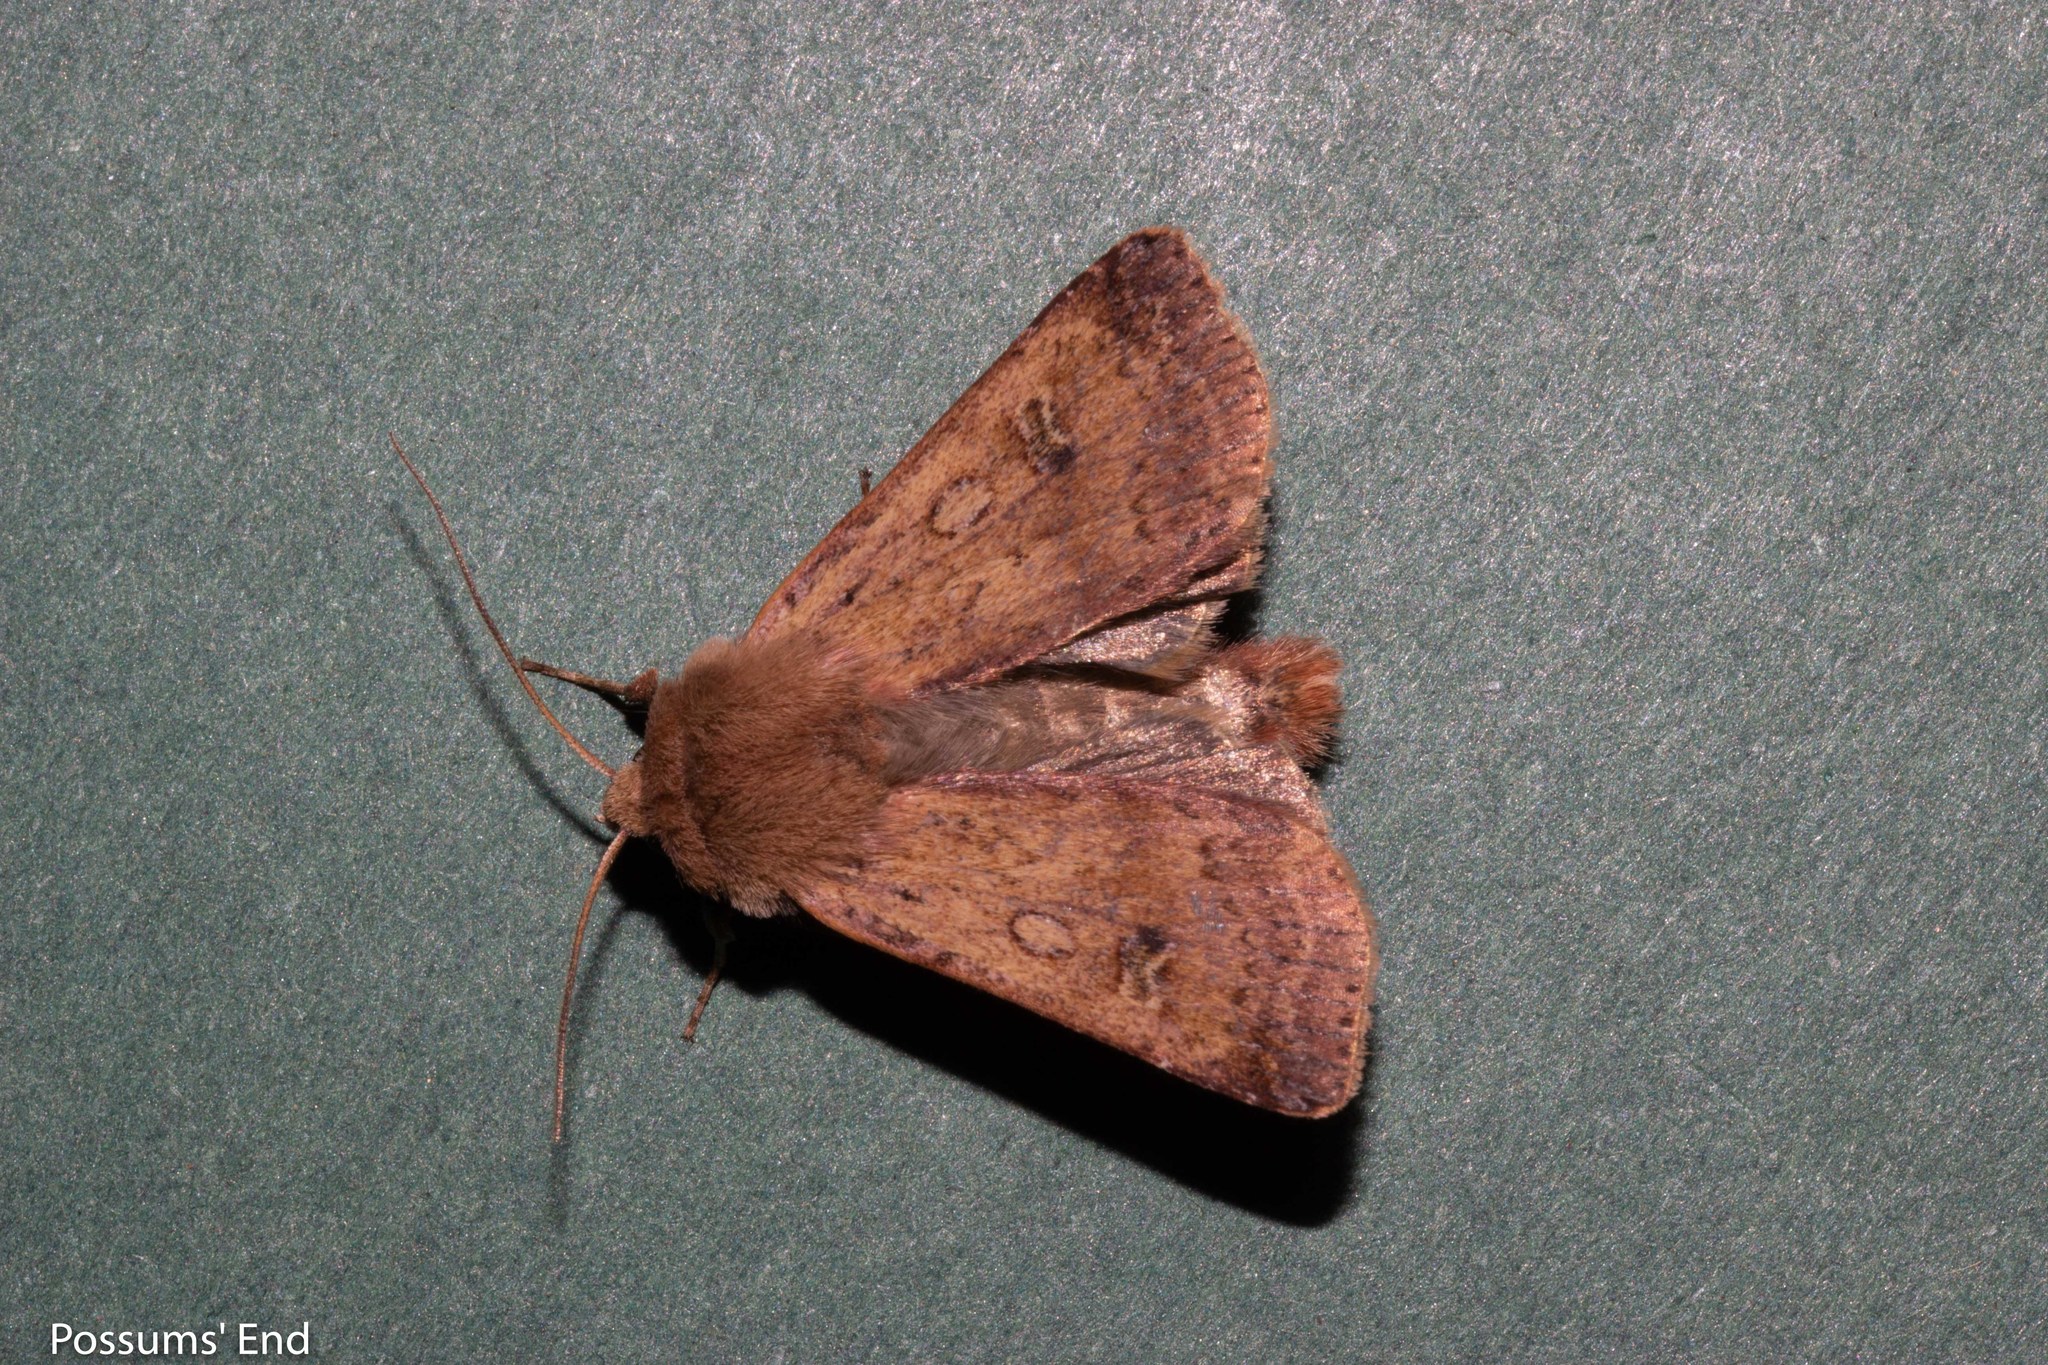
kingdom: Animalia
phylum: Arthropoda
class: Insecta
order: Lepidoptera
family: Noctuidae
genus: Diarsia
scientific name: Diarsia intermixta
